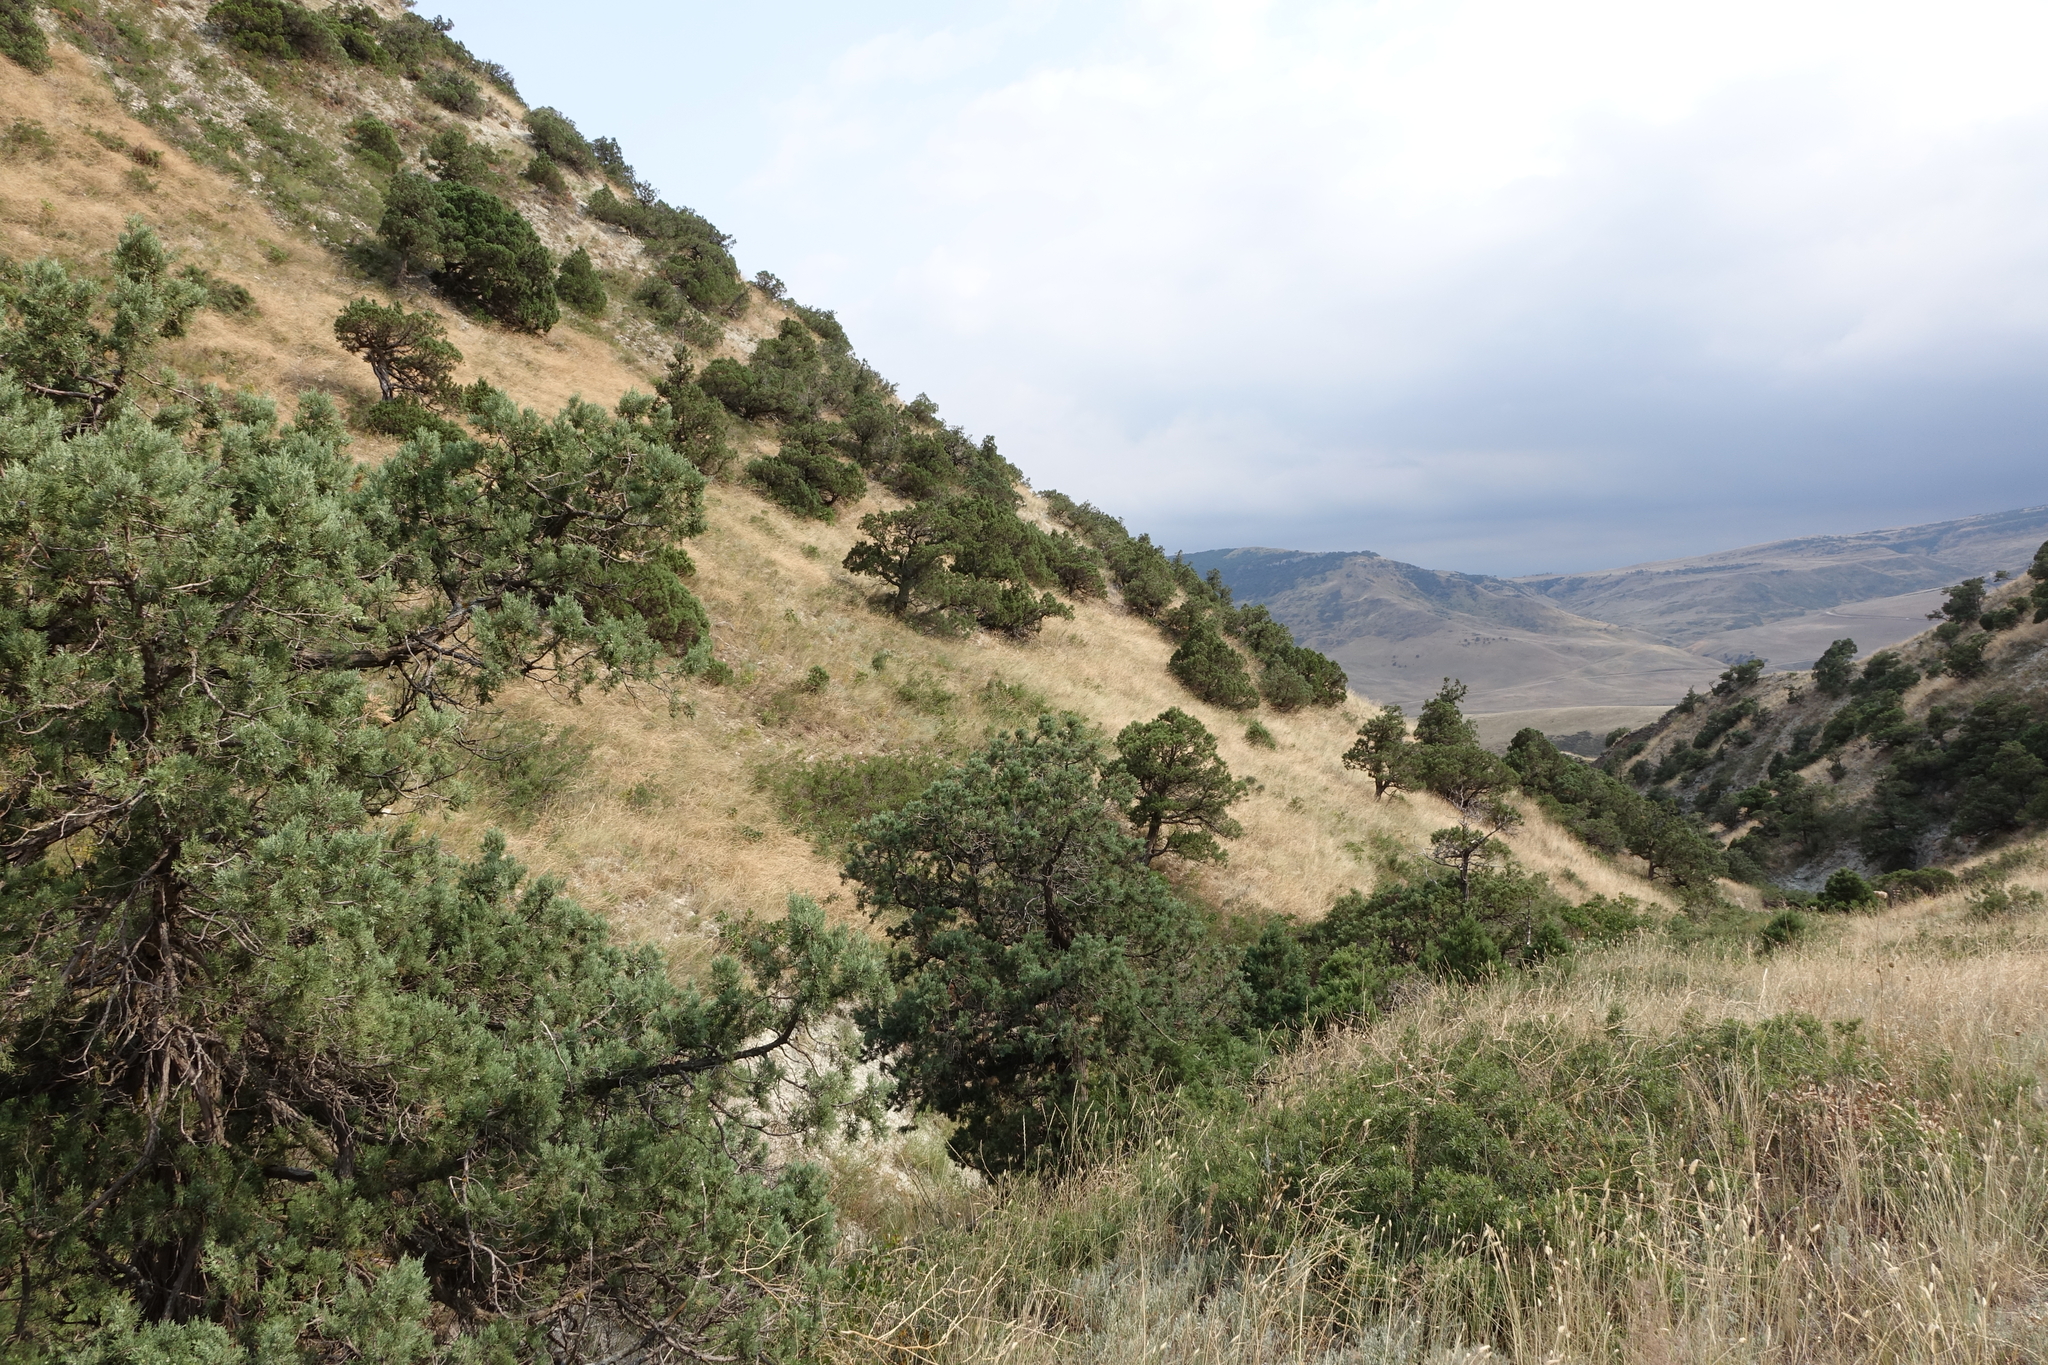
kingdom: Plantae
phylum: Tracheophyta
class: Pinopsida
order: Pinales
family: Cupressaceae
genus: Juniperus
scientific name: Juniperus excelsa
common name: Crimean juniper
